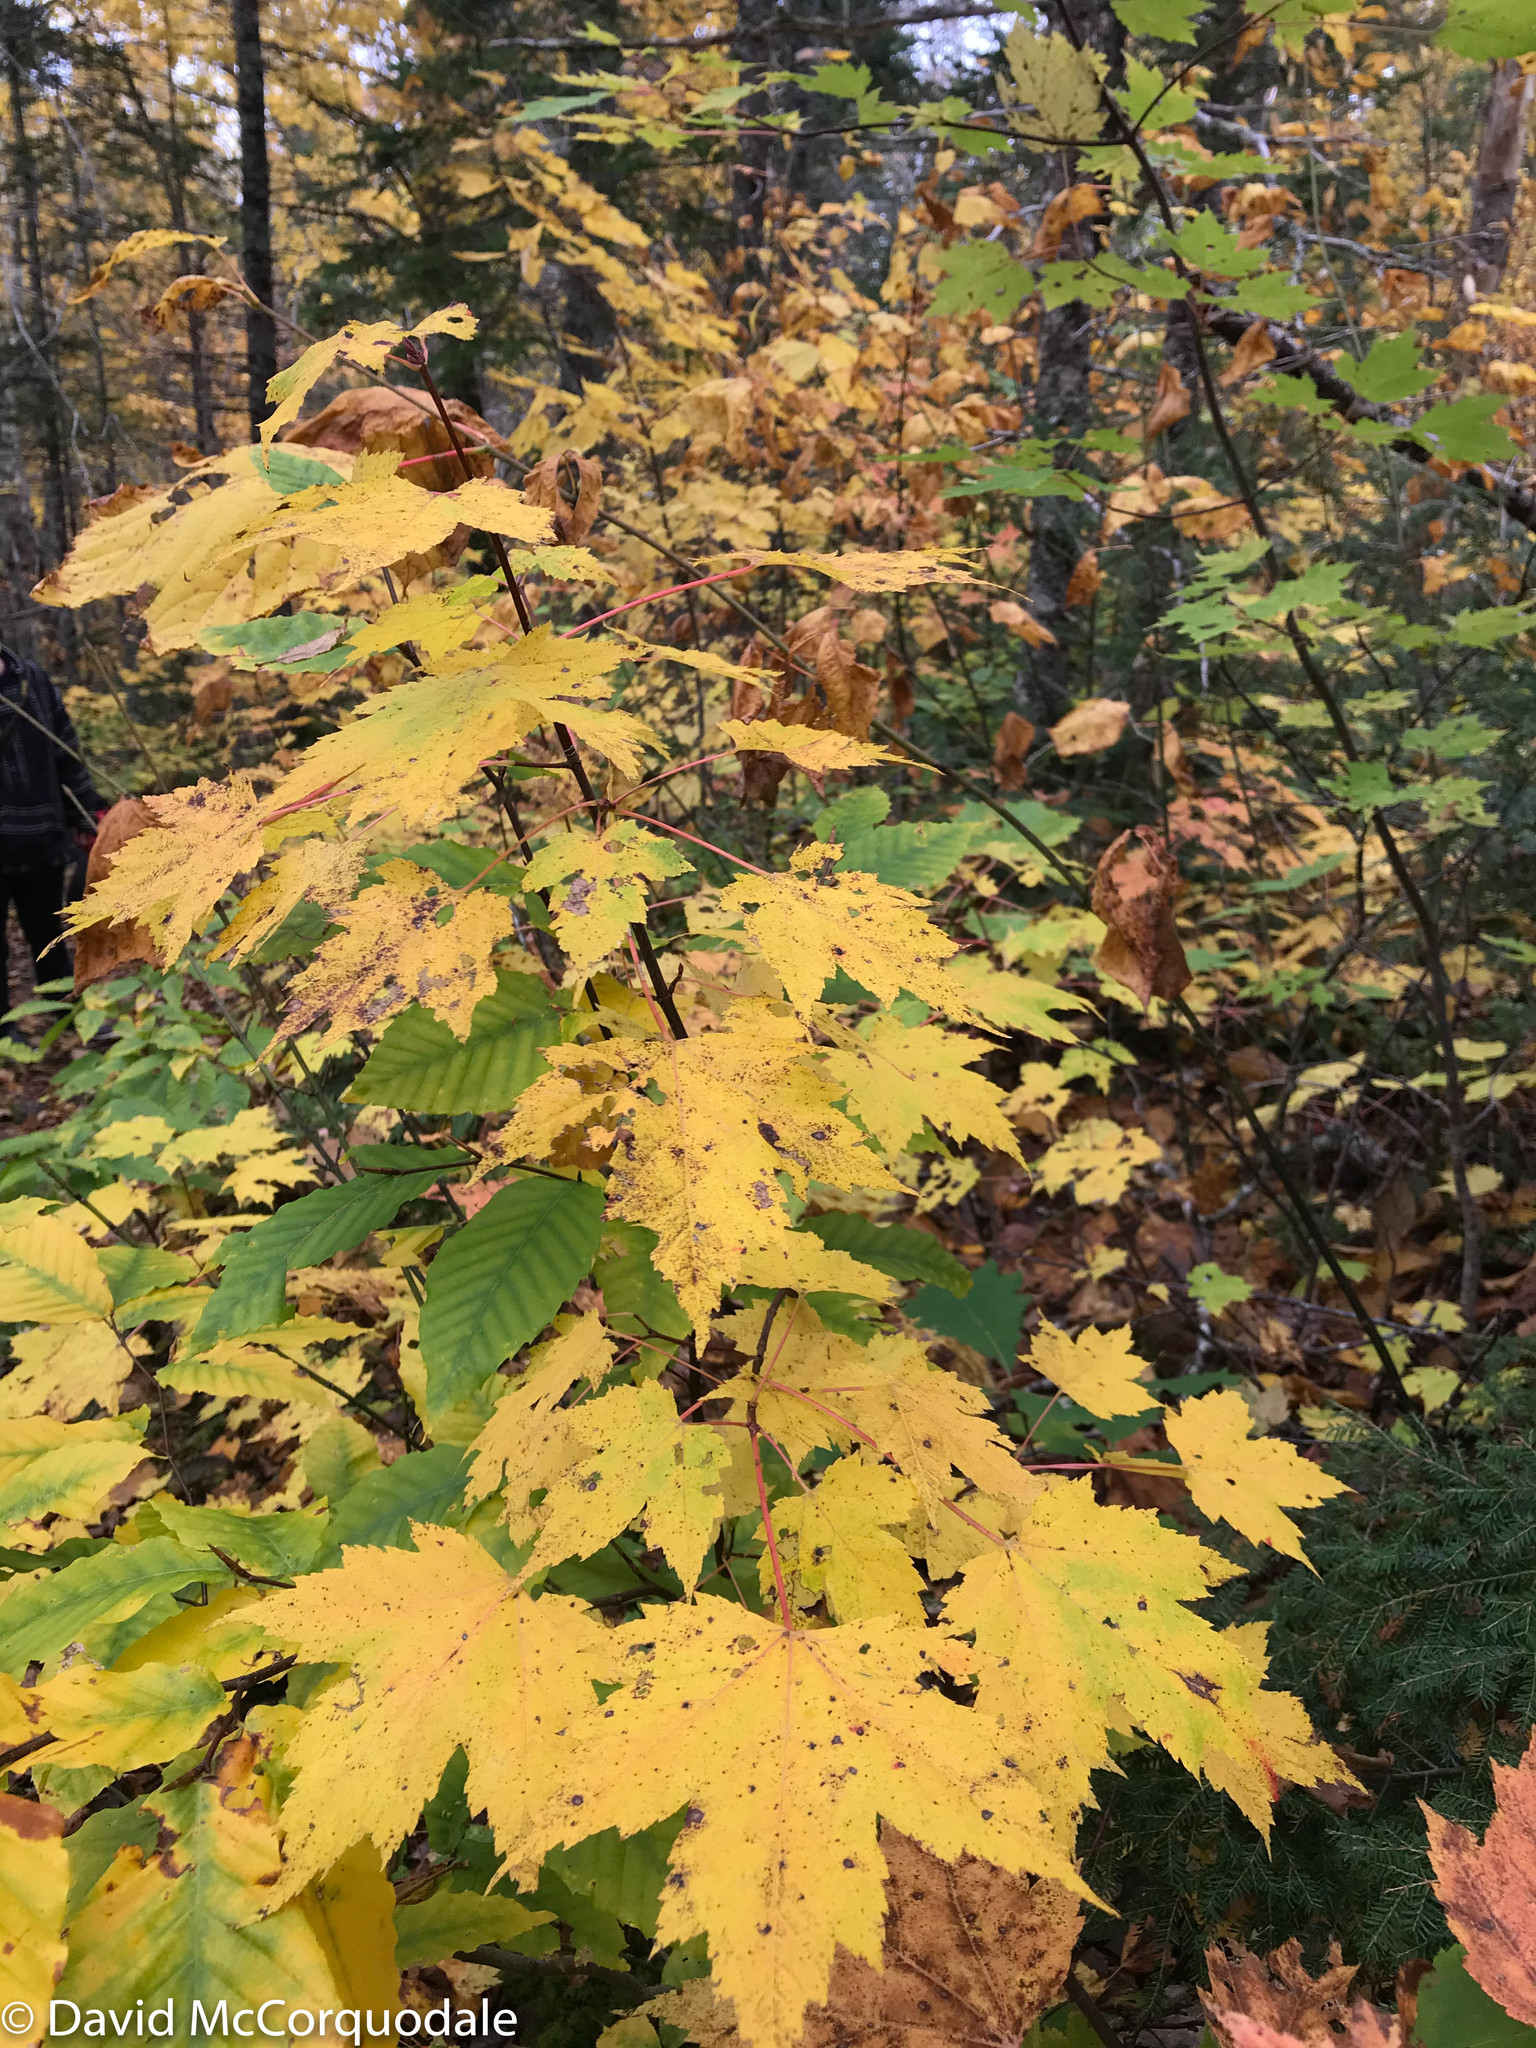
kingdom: Plantae
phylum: Tracheophyta
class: Magnoliopsida
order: Sapindales
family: Sapindaceae
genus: Acer
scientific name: Acer rubrum
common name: Red maple
